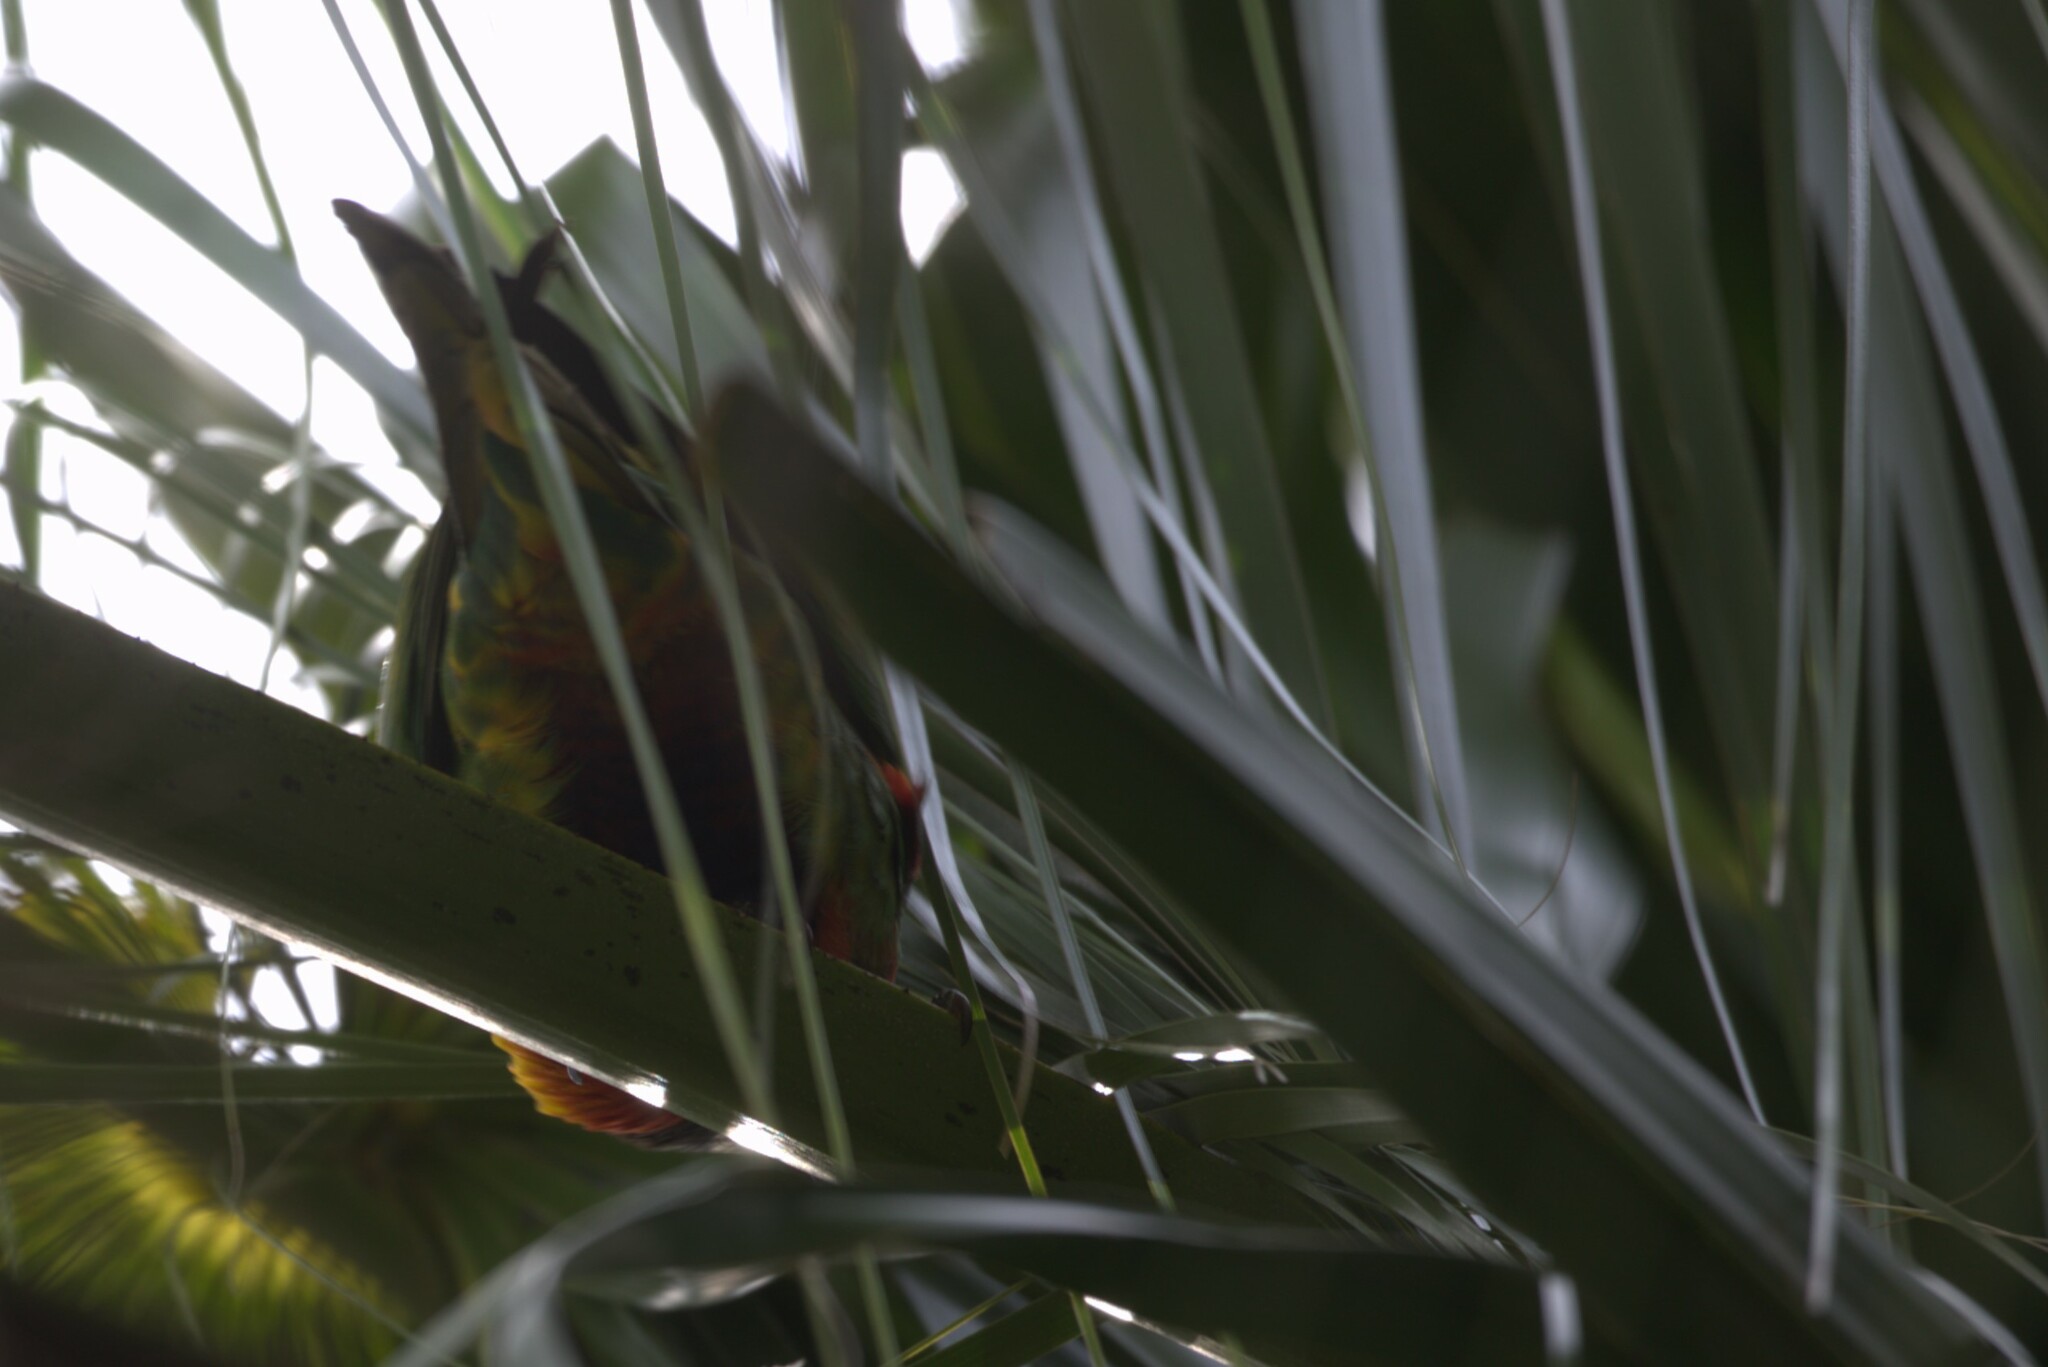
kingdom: Animalia
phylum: Chordata
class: Aves
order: Psittaciformes
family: Psittacidae
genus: Trichoglossus
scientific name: Trichoglossus haematodus
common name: Coconut lorikeet
